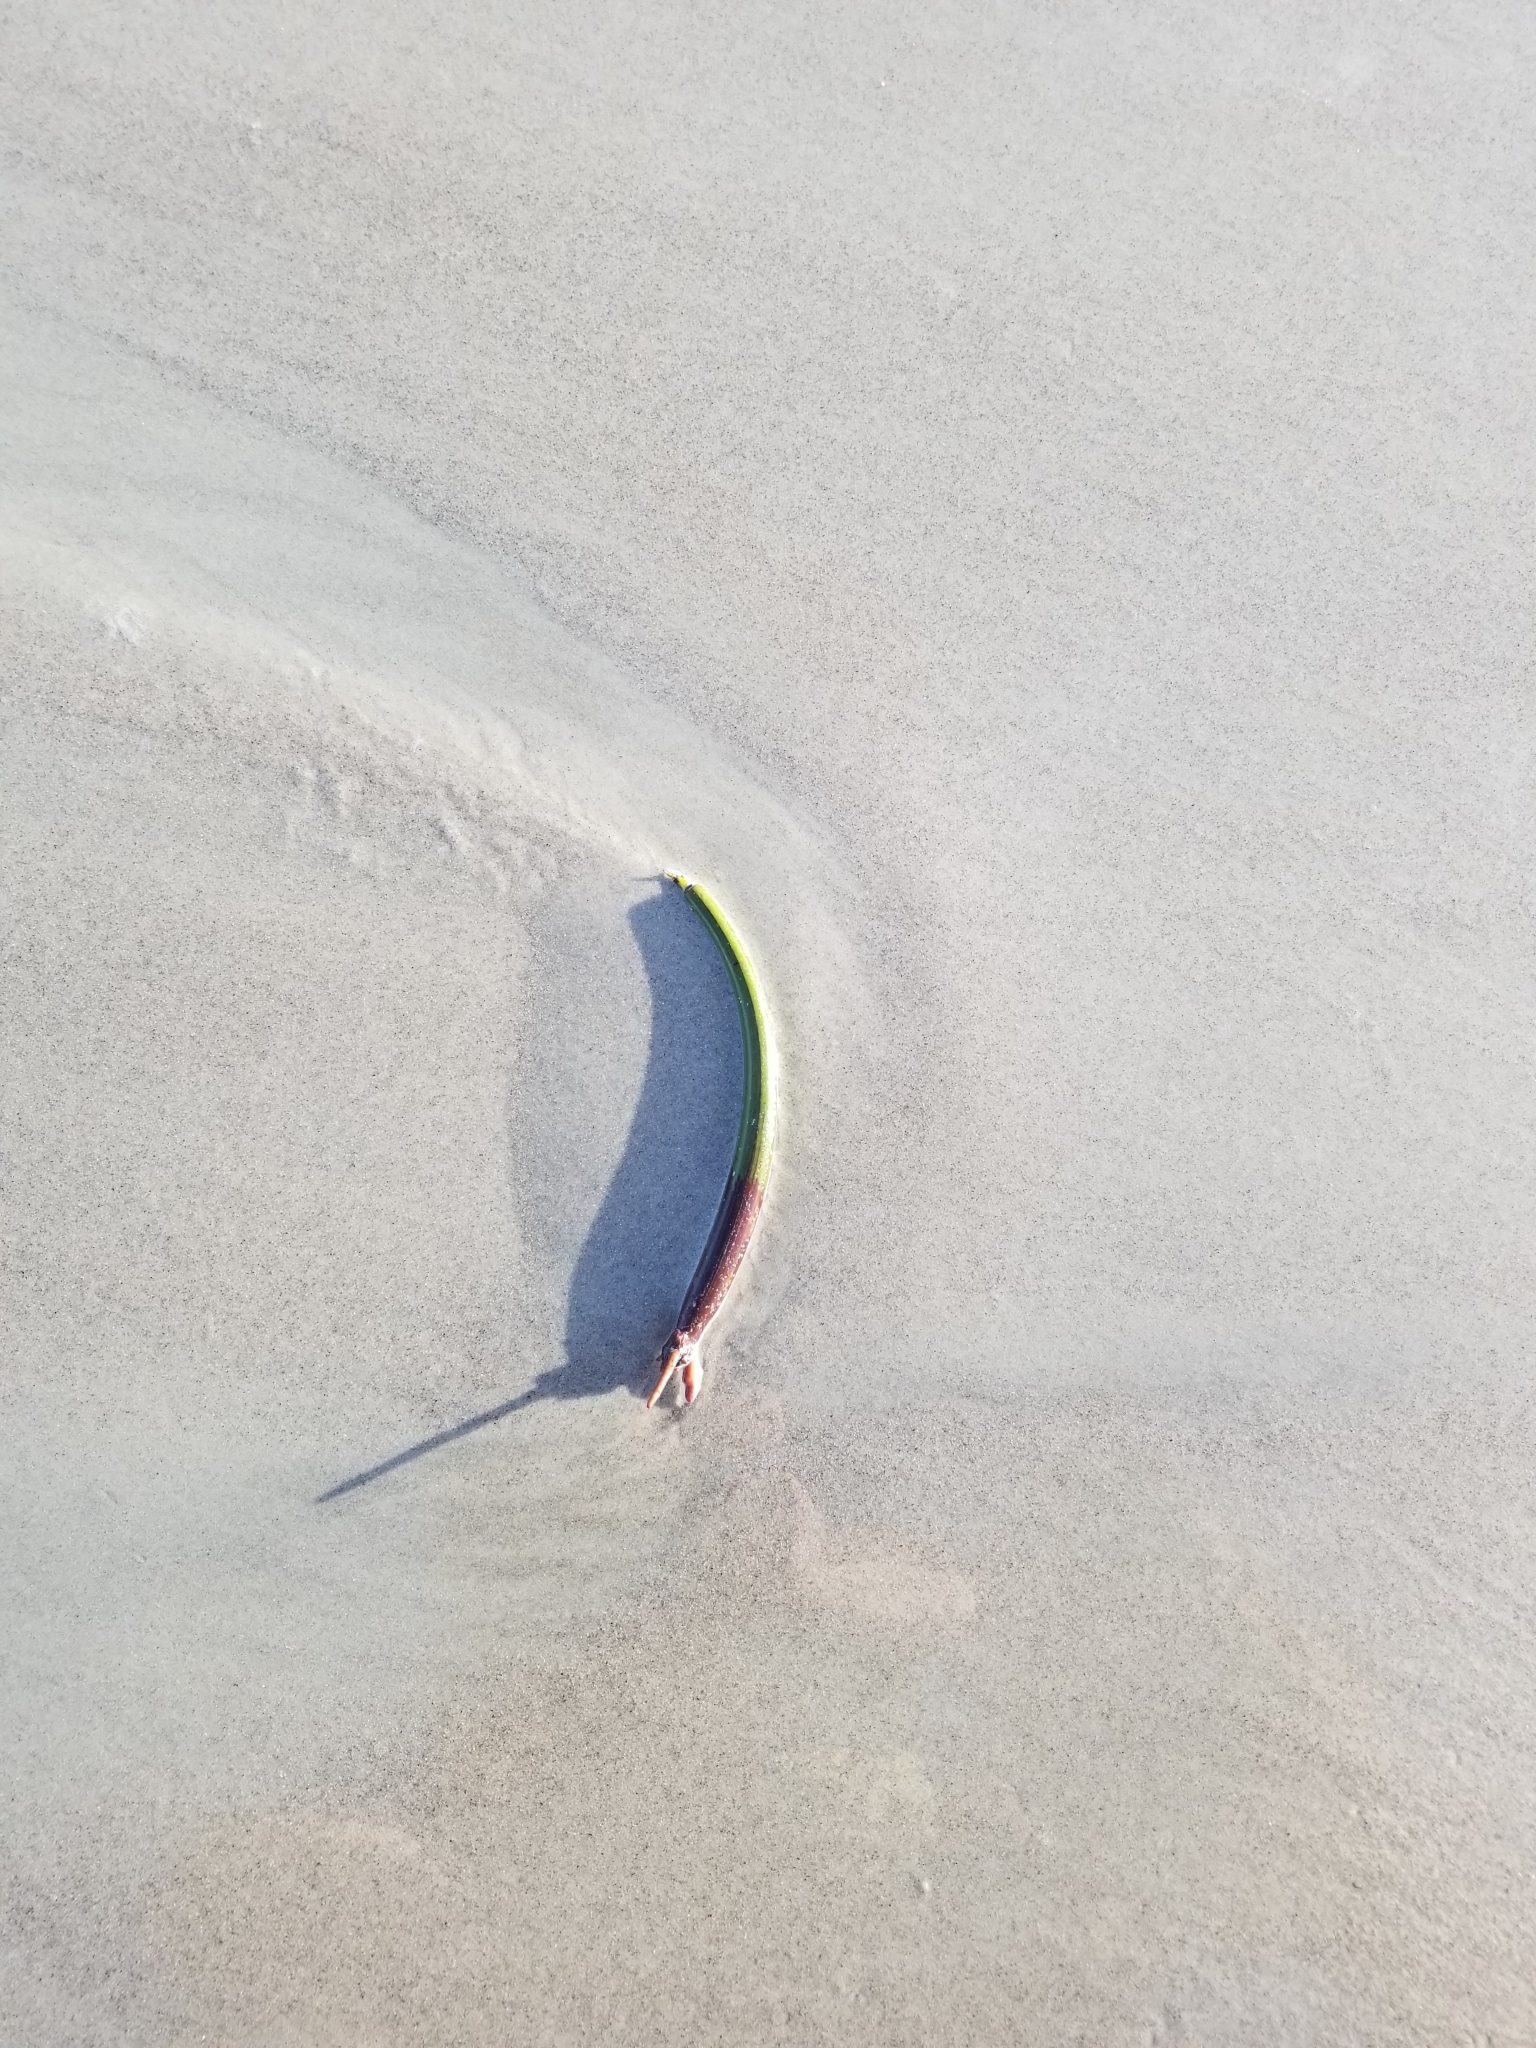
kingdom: Plantae
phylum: Tracheophyta
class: Magnoliopsida
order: Malpighiales
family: Rhizophoraceae
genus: Rhizophora
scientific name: Rhizophora mangle
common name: Red mangrove
